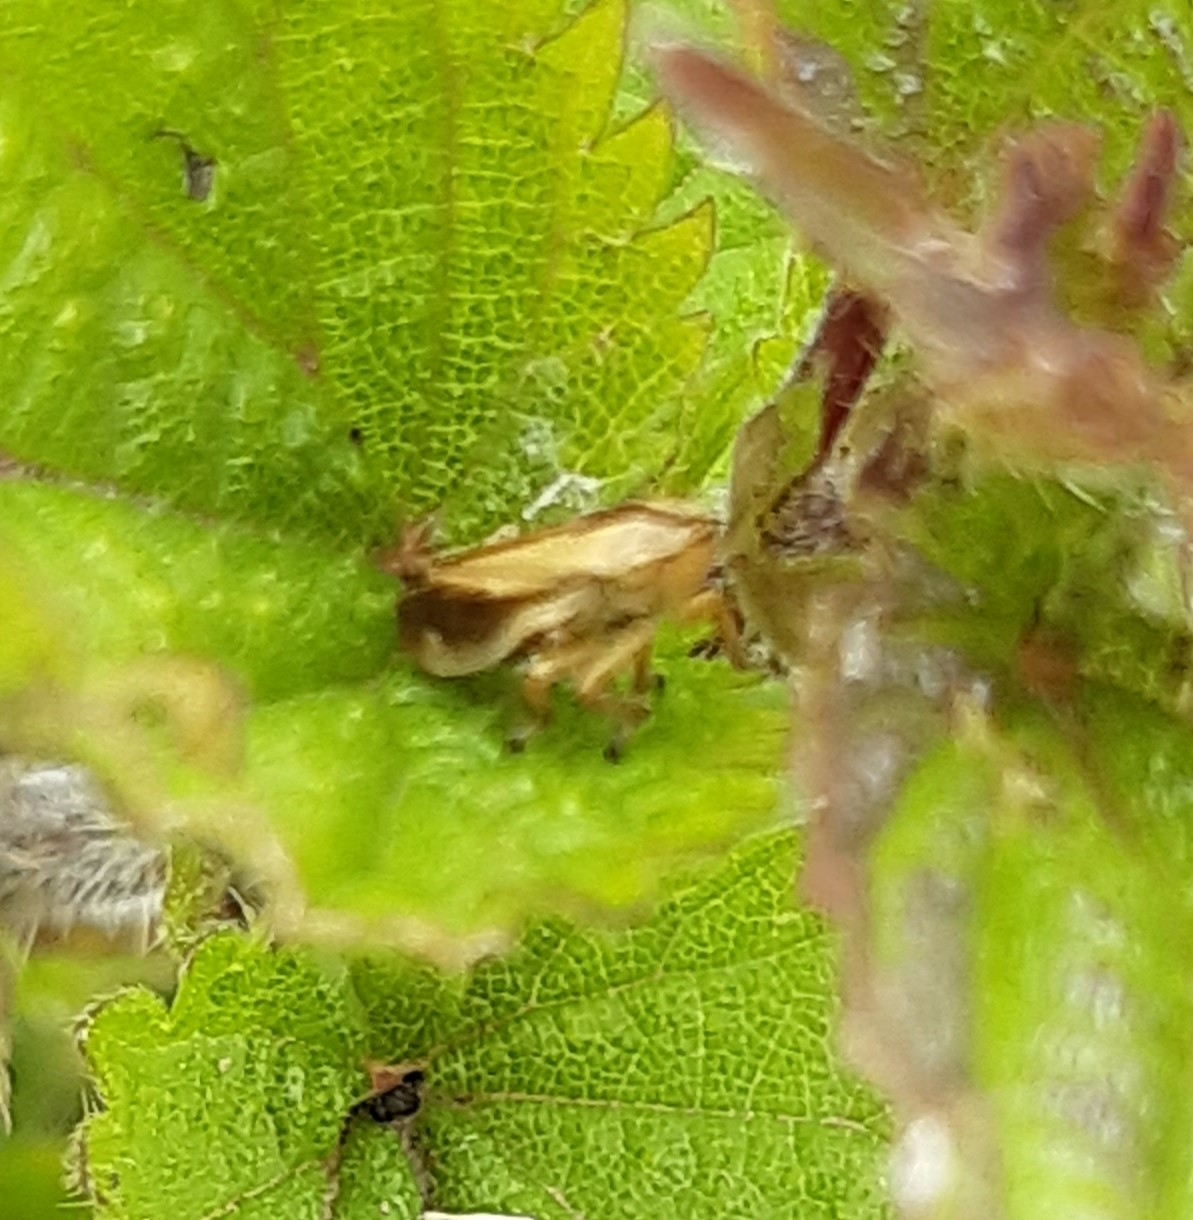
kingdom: Animalia
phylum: Arthropoda
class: Insecta
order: Hemiptera
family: Aphrophoridae
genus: Philaenus
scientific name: Philaenus spumarius
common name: Meadow spittlebug
